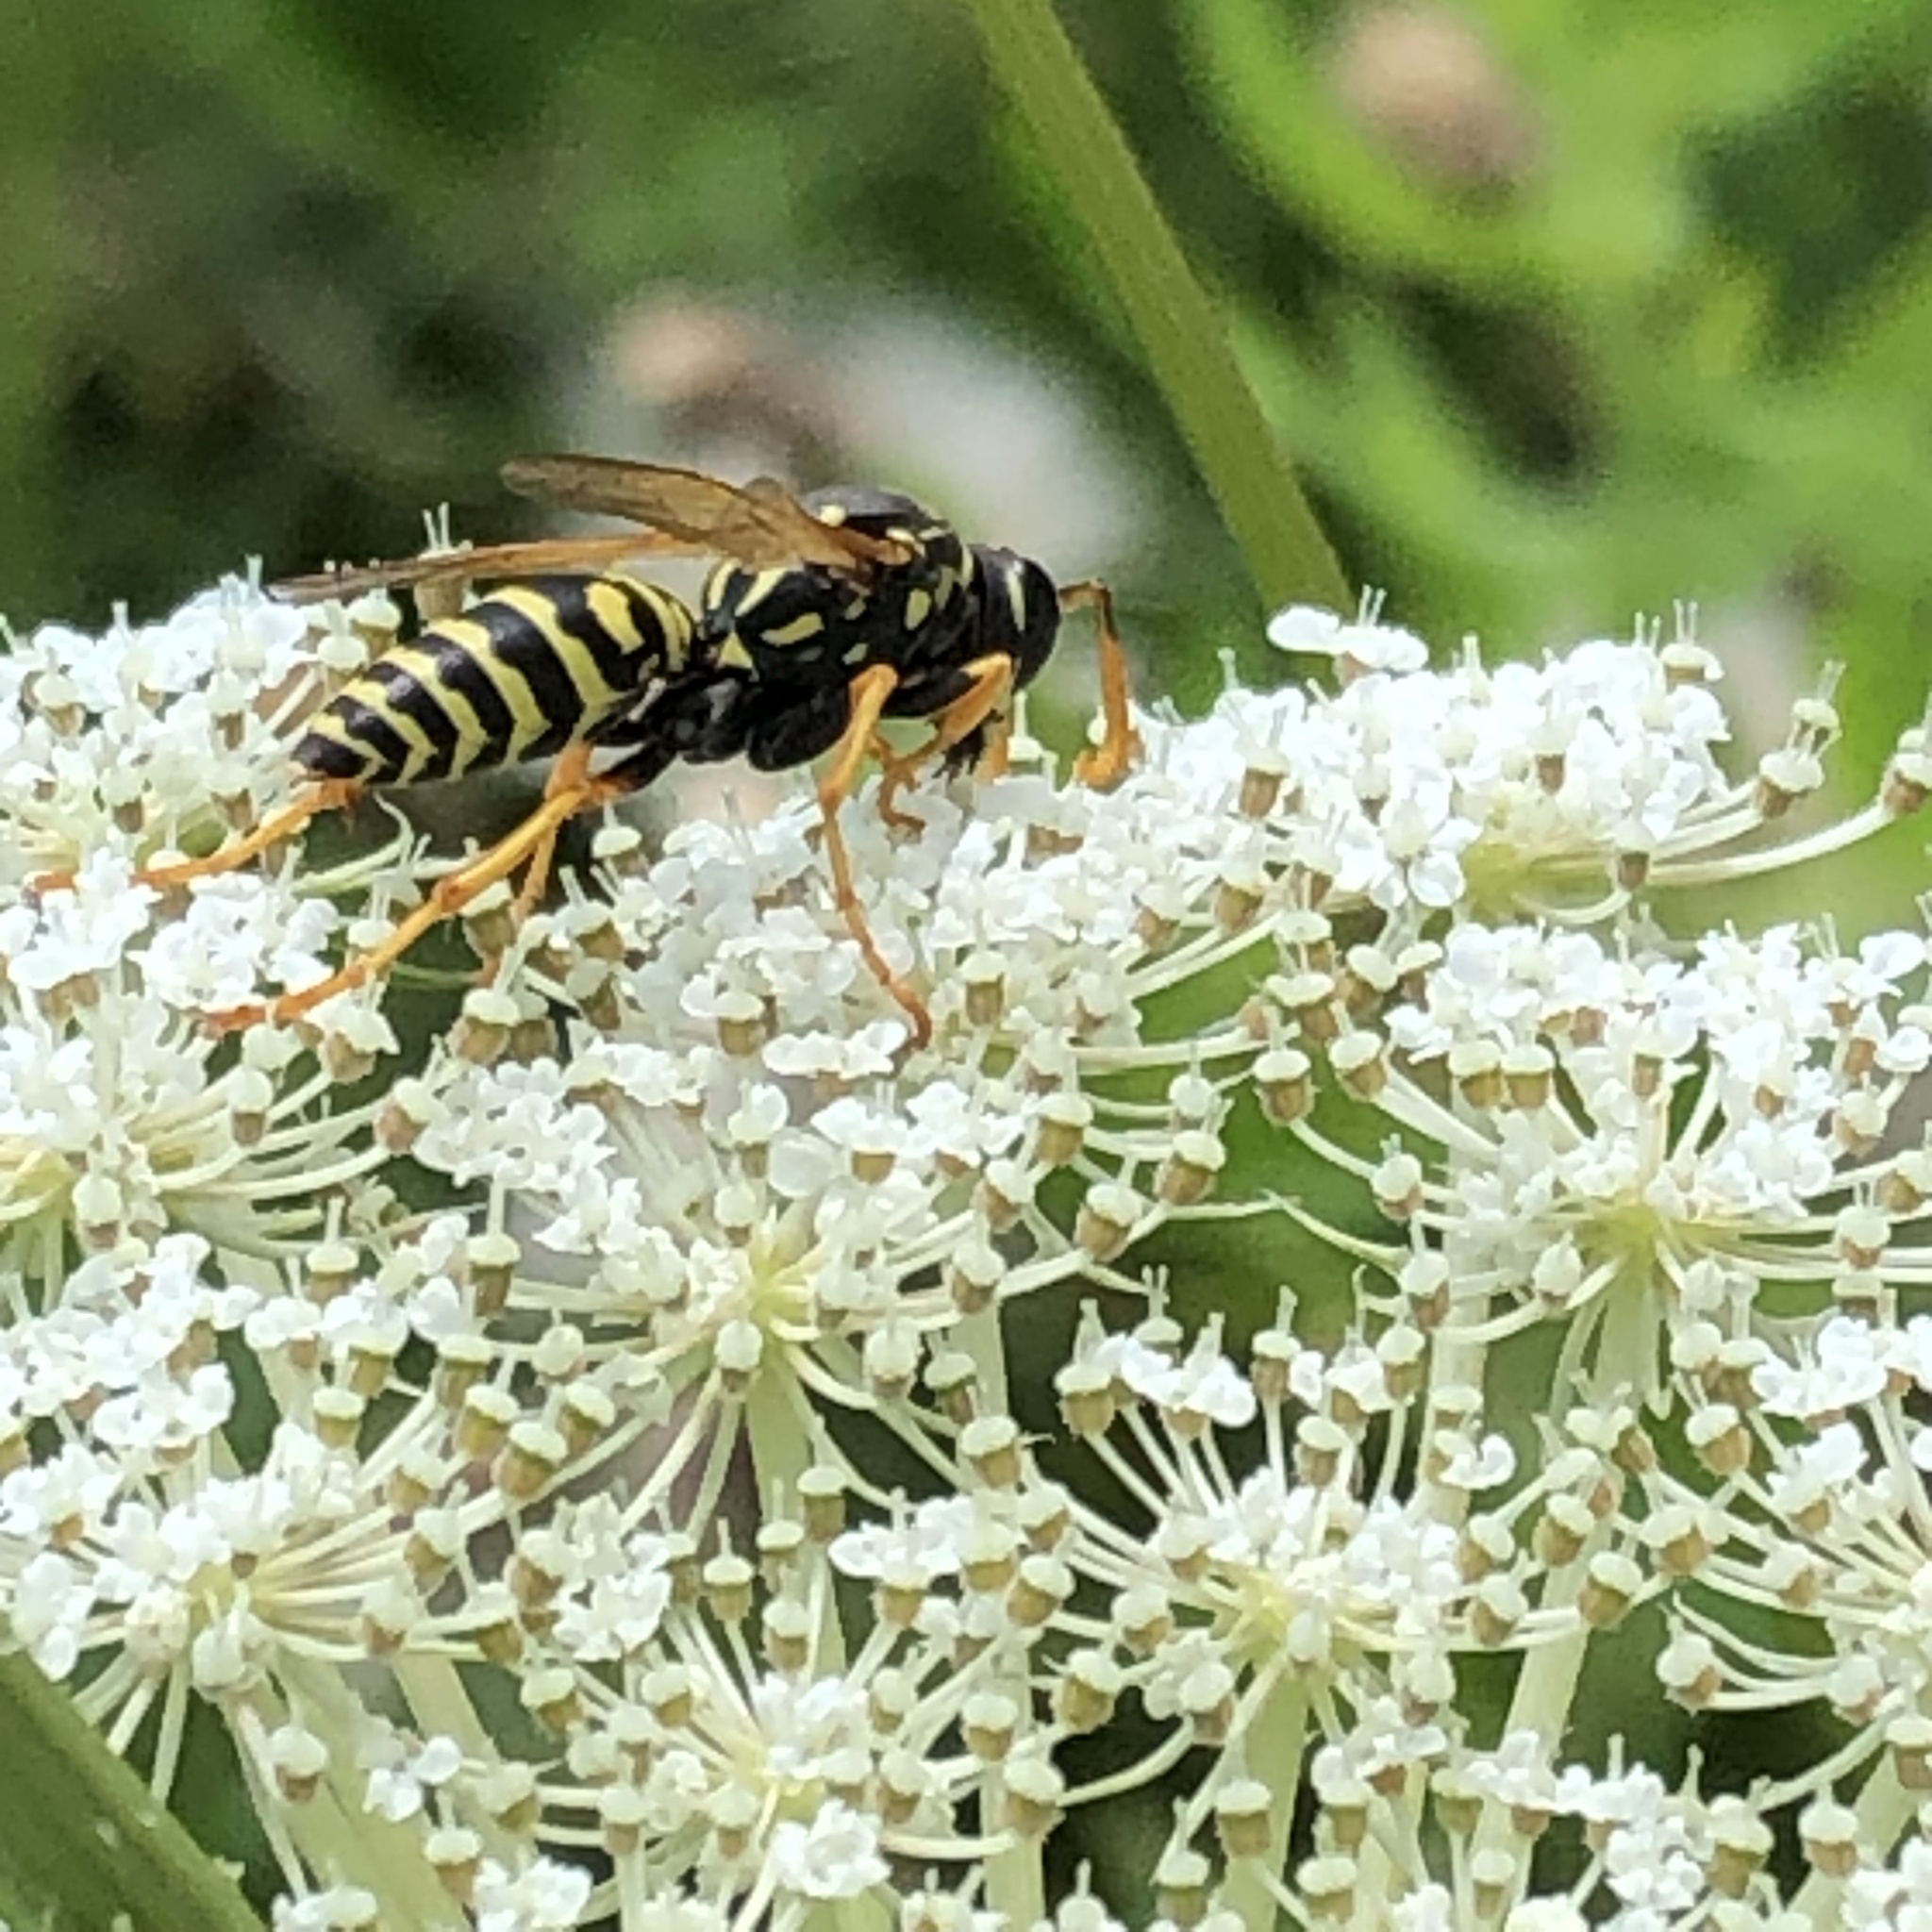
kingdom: Animalia
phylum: Arthropoda
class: Insecta
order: Hymenoptera
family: Eumenidae
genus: Polistes
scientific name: Polistes dominula
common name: Paper wasp
